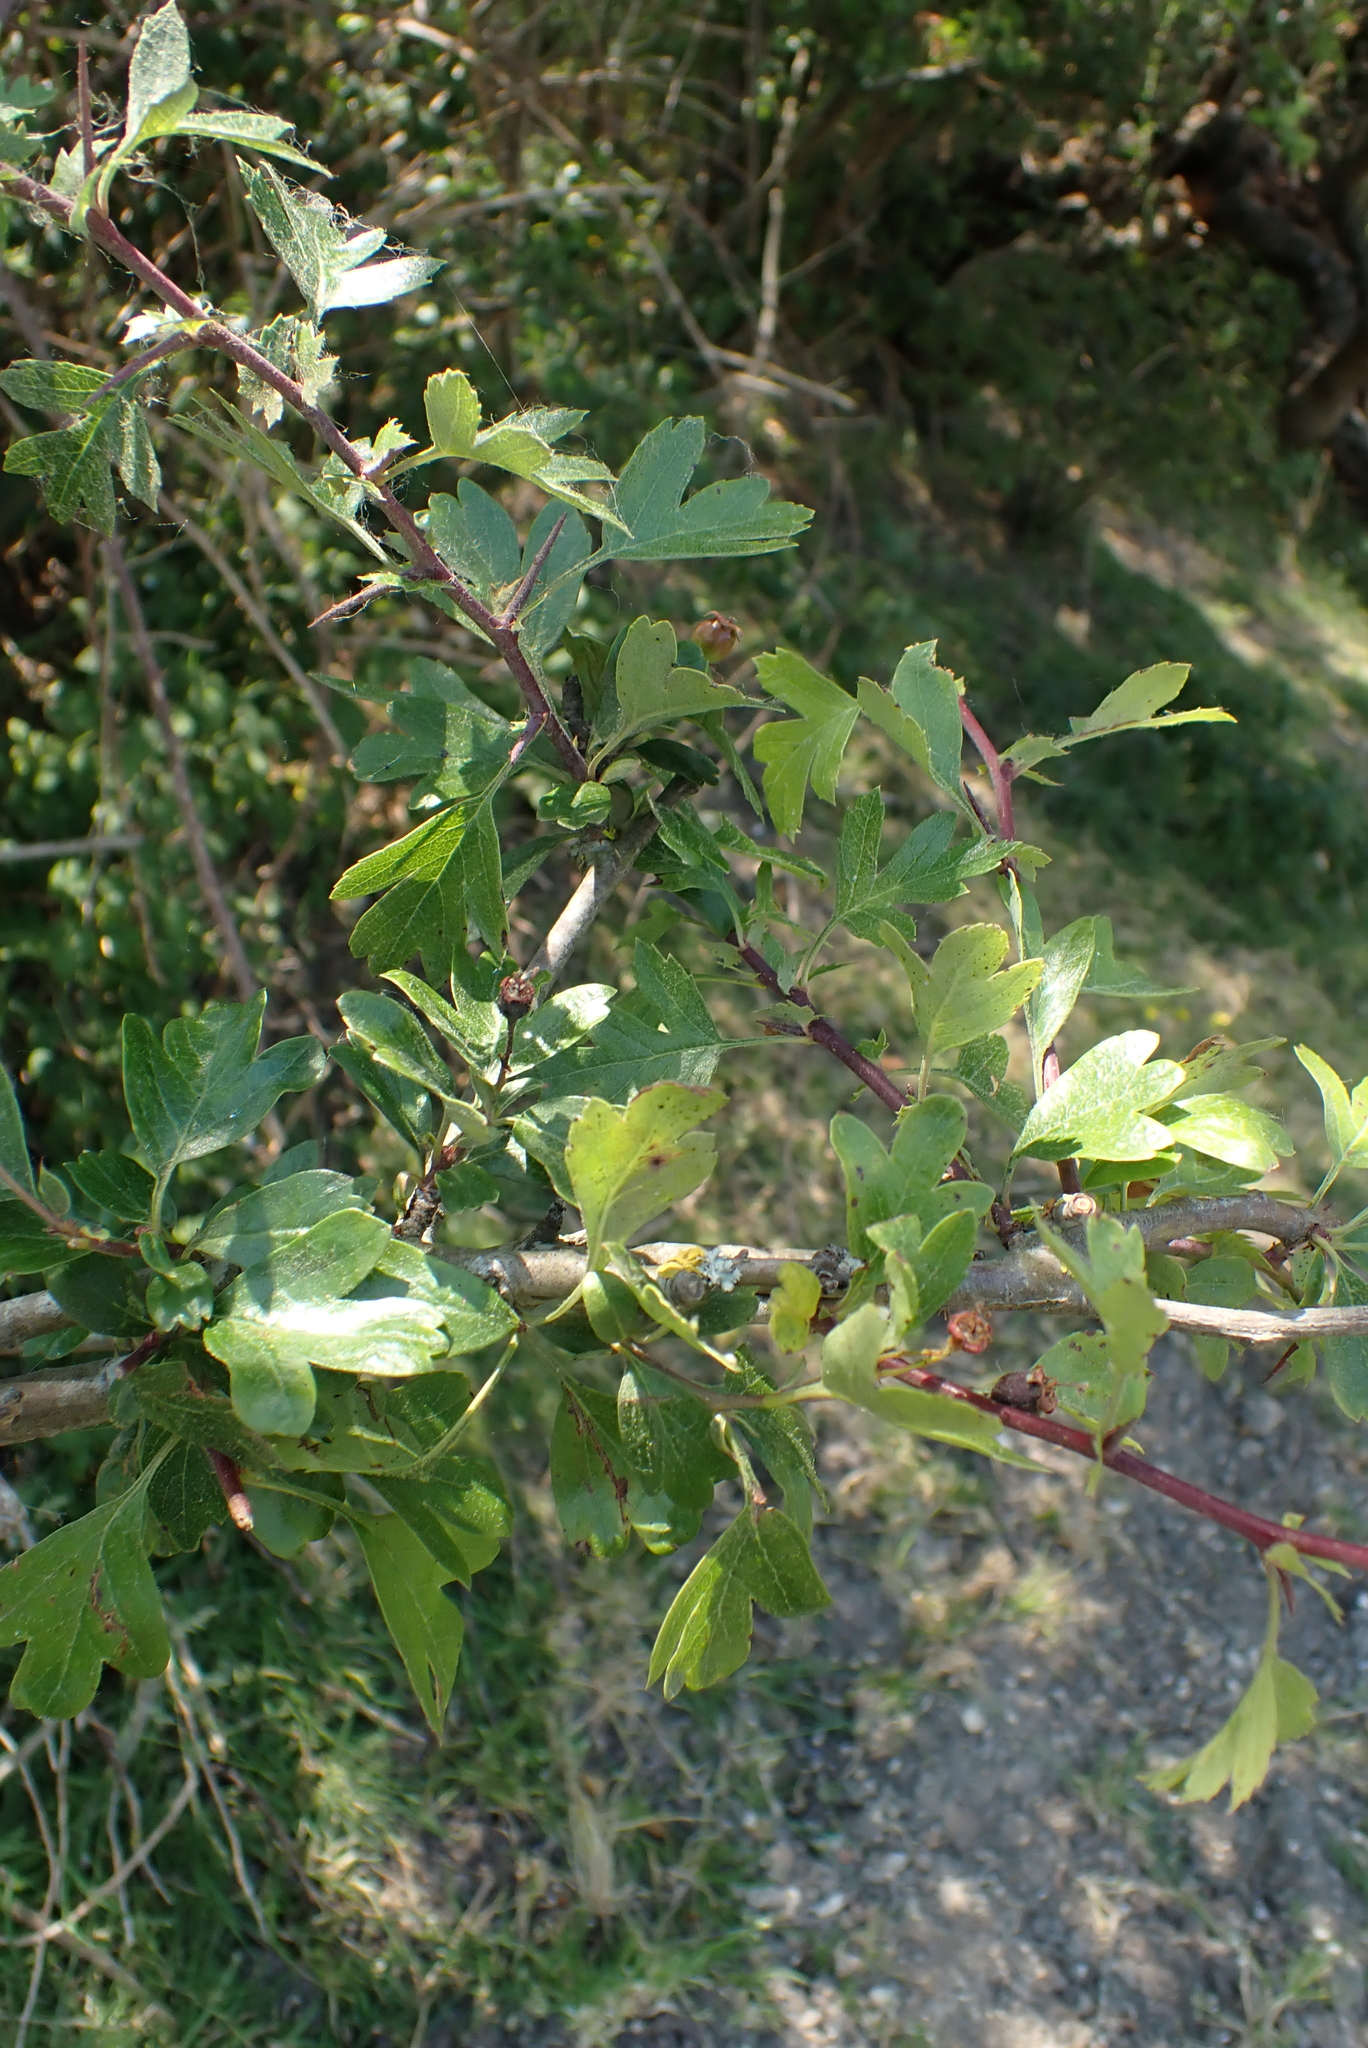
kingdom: Plantae
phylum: Tracheophyta
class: Magnoliopsida
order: Rosales
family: Rosaceae
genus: Crataegus
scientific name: Crataegus monogyna
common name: Hawthorn
